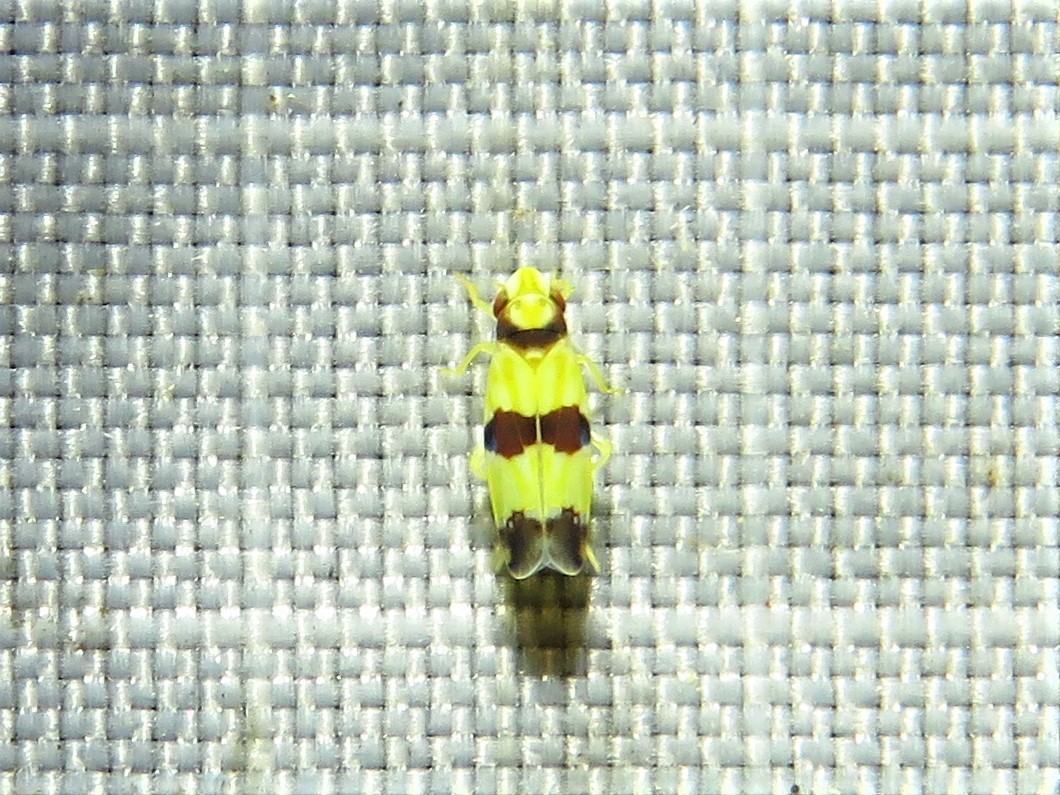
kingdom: Animalia
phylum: Arthropoda
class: Insecta
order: Hemiptera
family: Cicadellidae
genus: Erythroneura
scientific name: Erythroneura calycula
